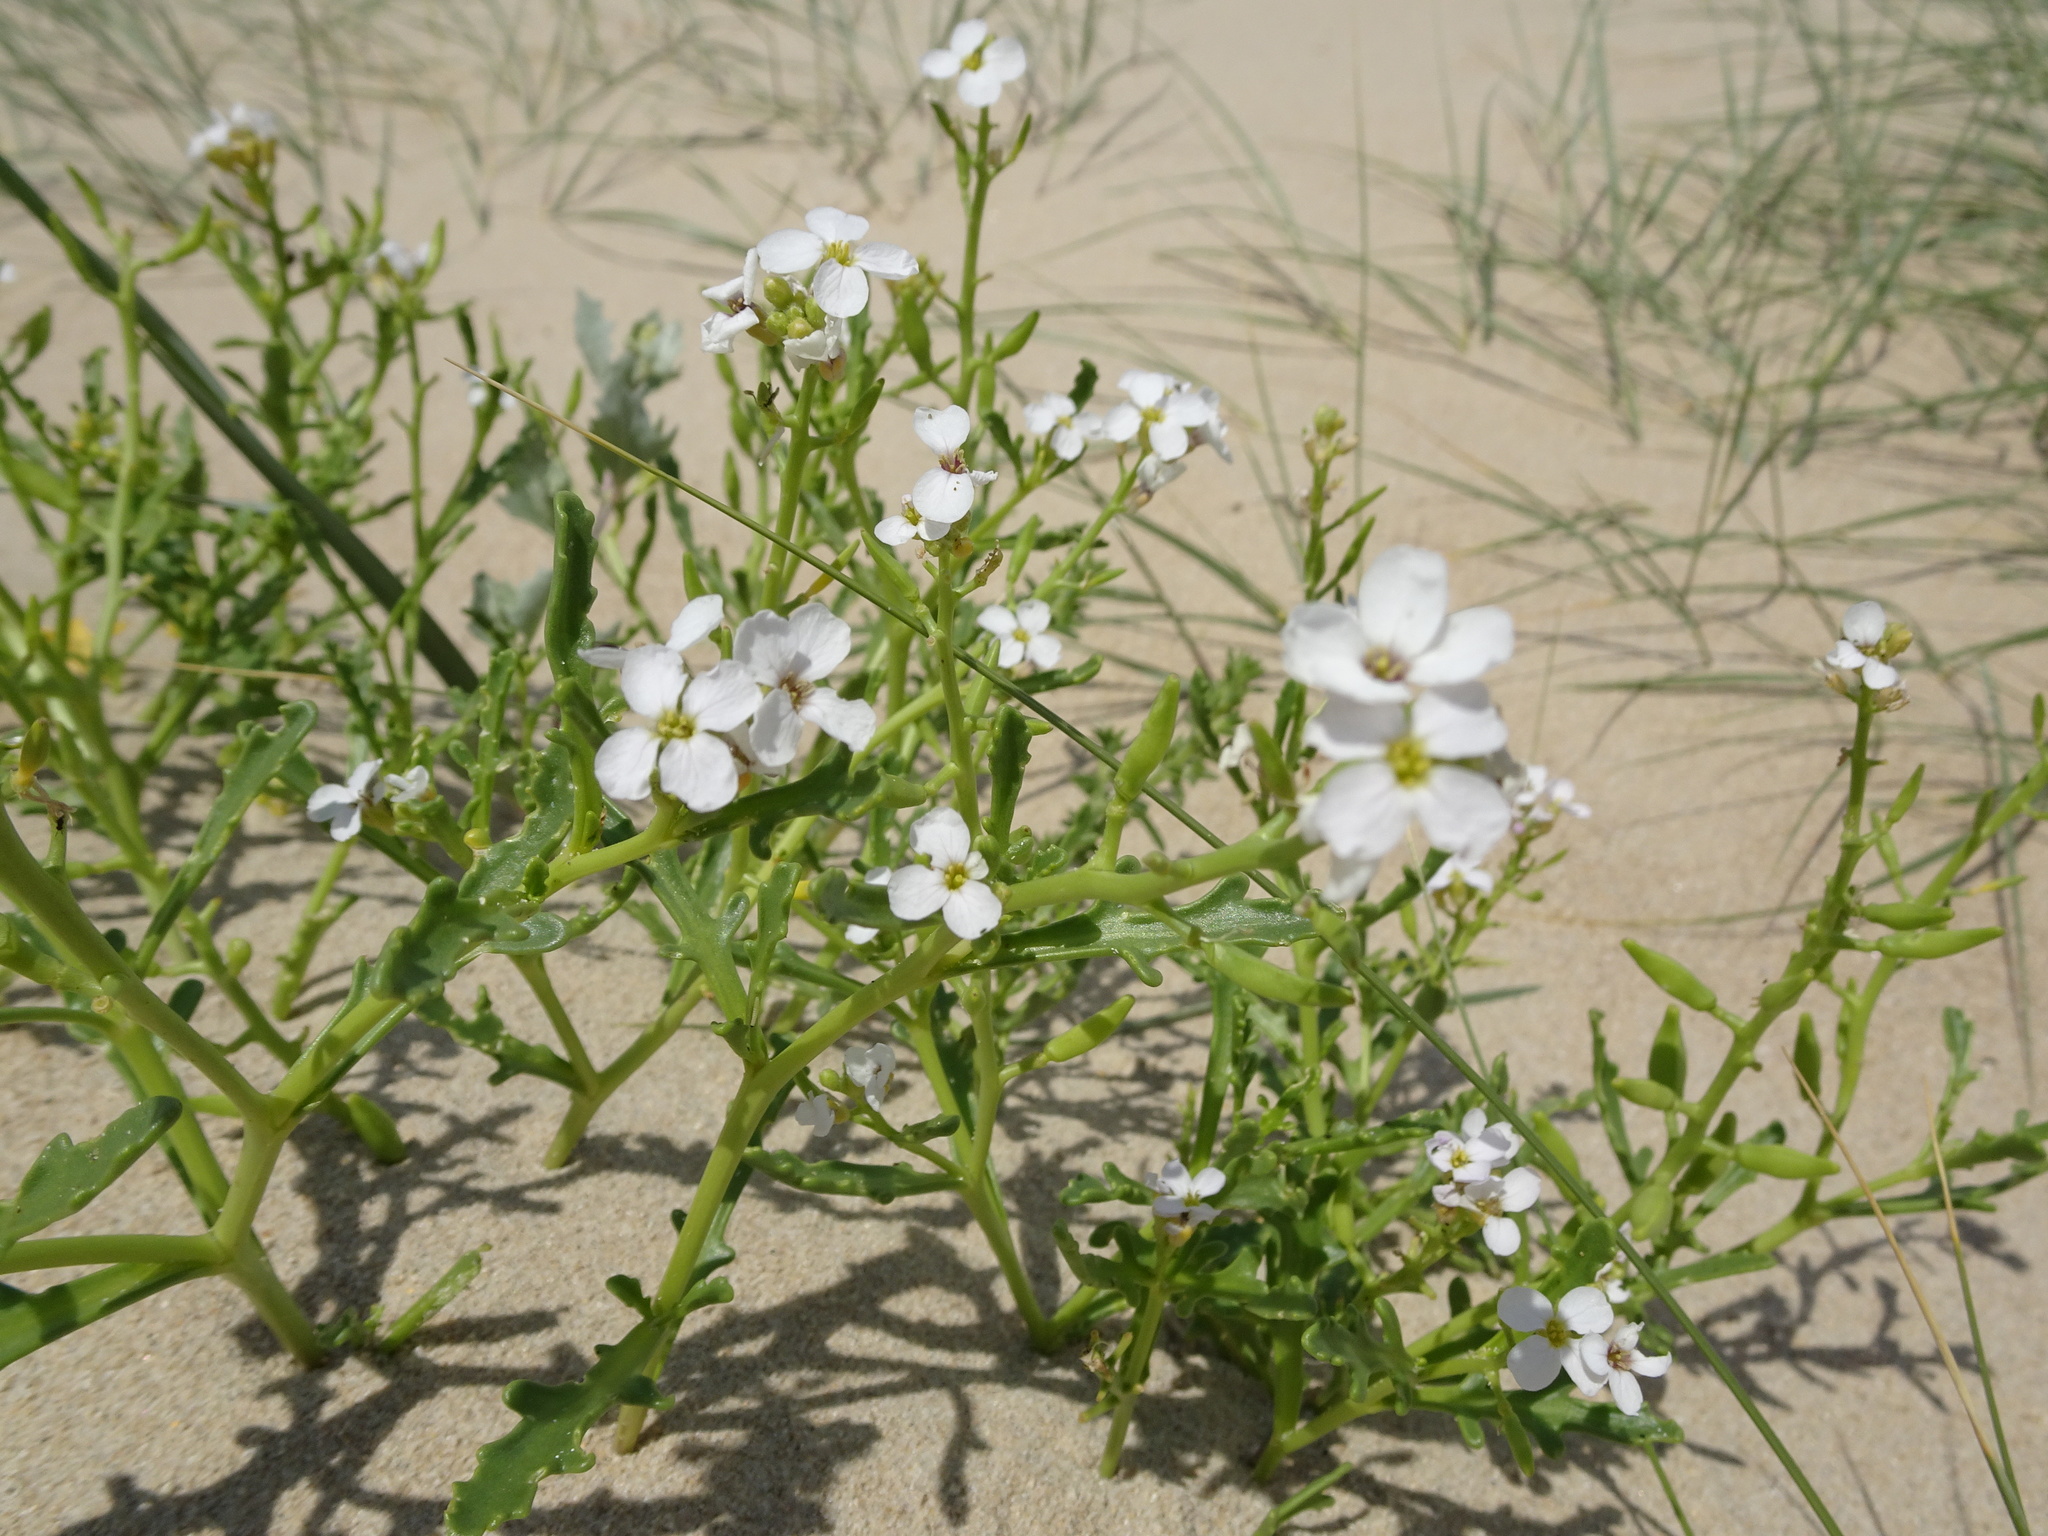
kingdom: Plantae
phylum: Tracheophyta
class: Magnoliopsida
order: Brassicales
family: Brassicaceae
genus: Cakile
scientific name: Cakile maritima
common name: Sea rocket
